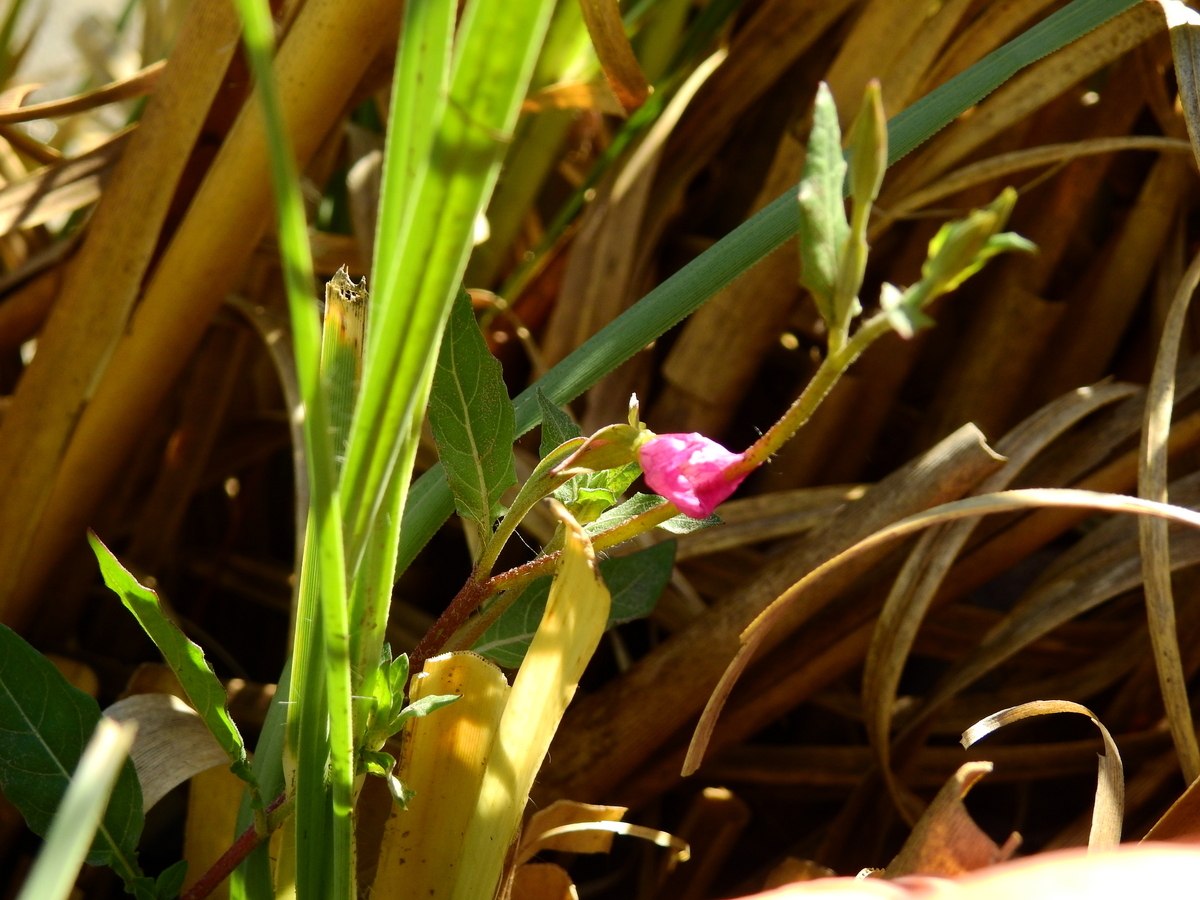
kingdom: Plantae
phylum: Tracheophyta
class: Magnoliopsida
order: Myrtales
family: Onagraceae
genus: Oenothera
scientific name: Oenothera rosea
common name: Rosy evening-primrose
